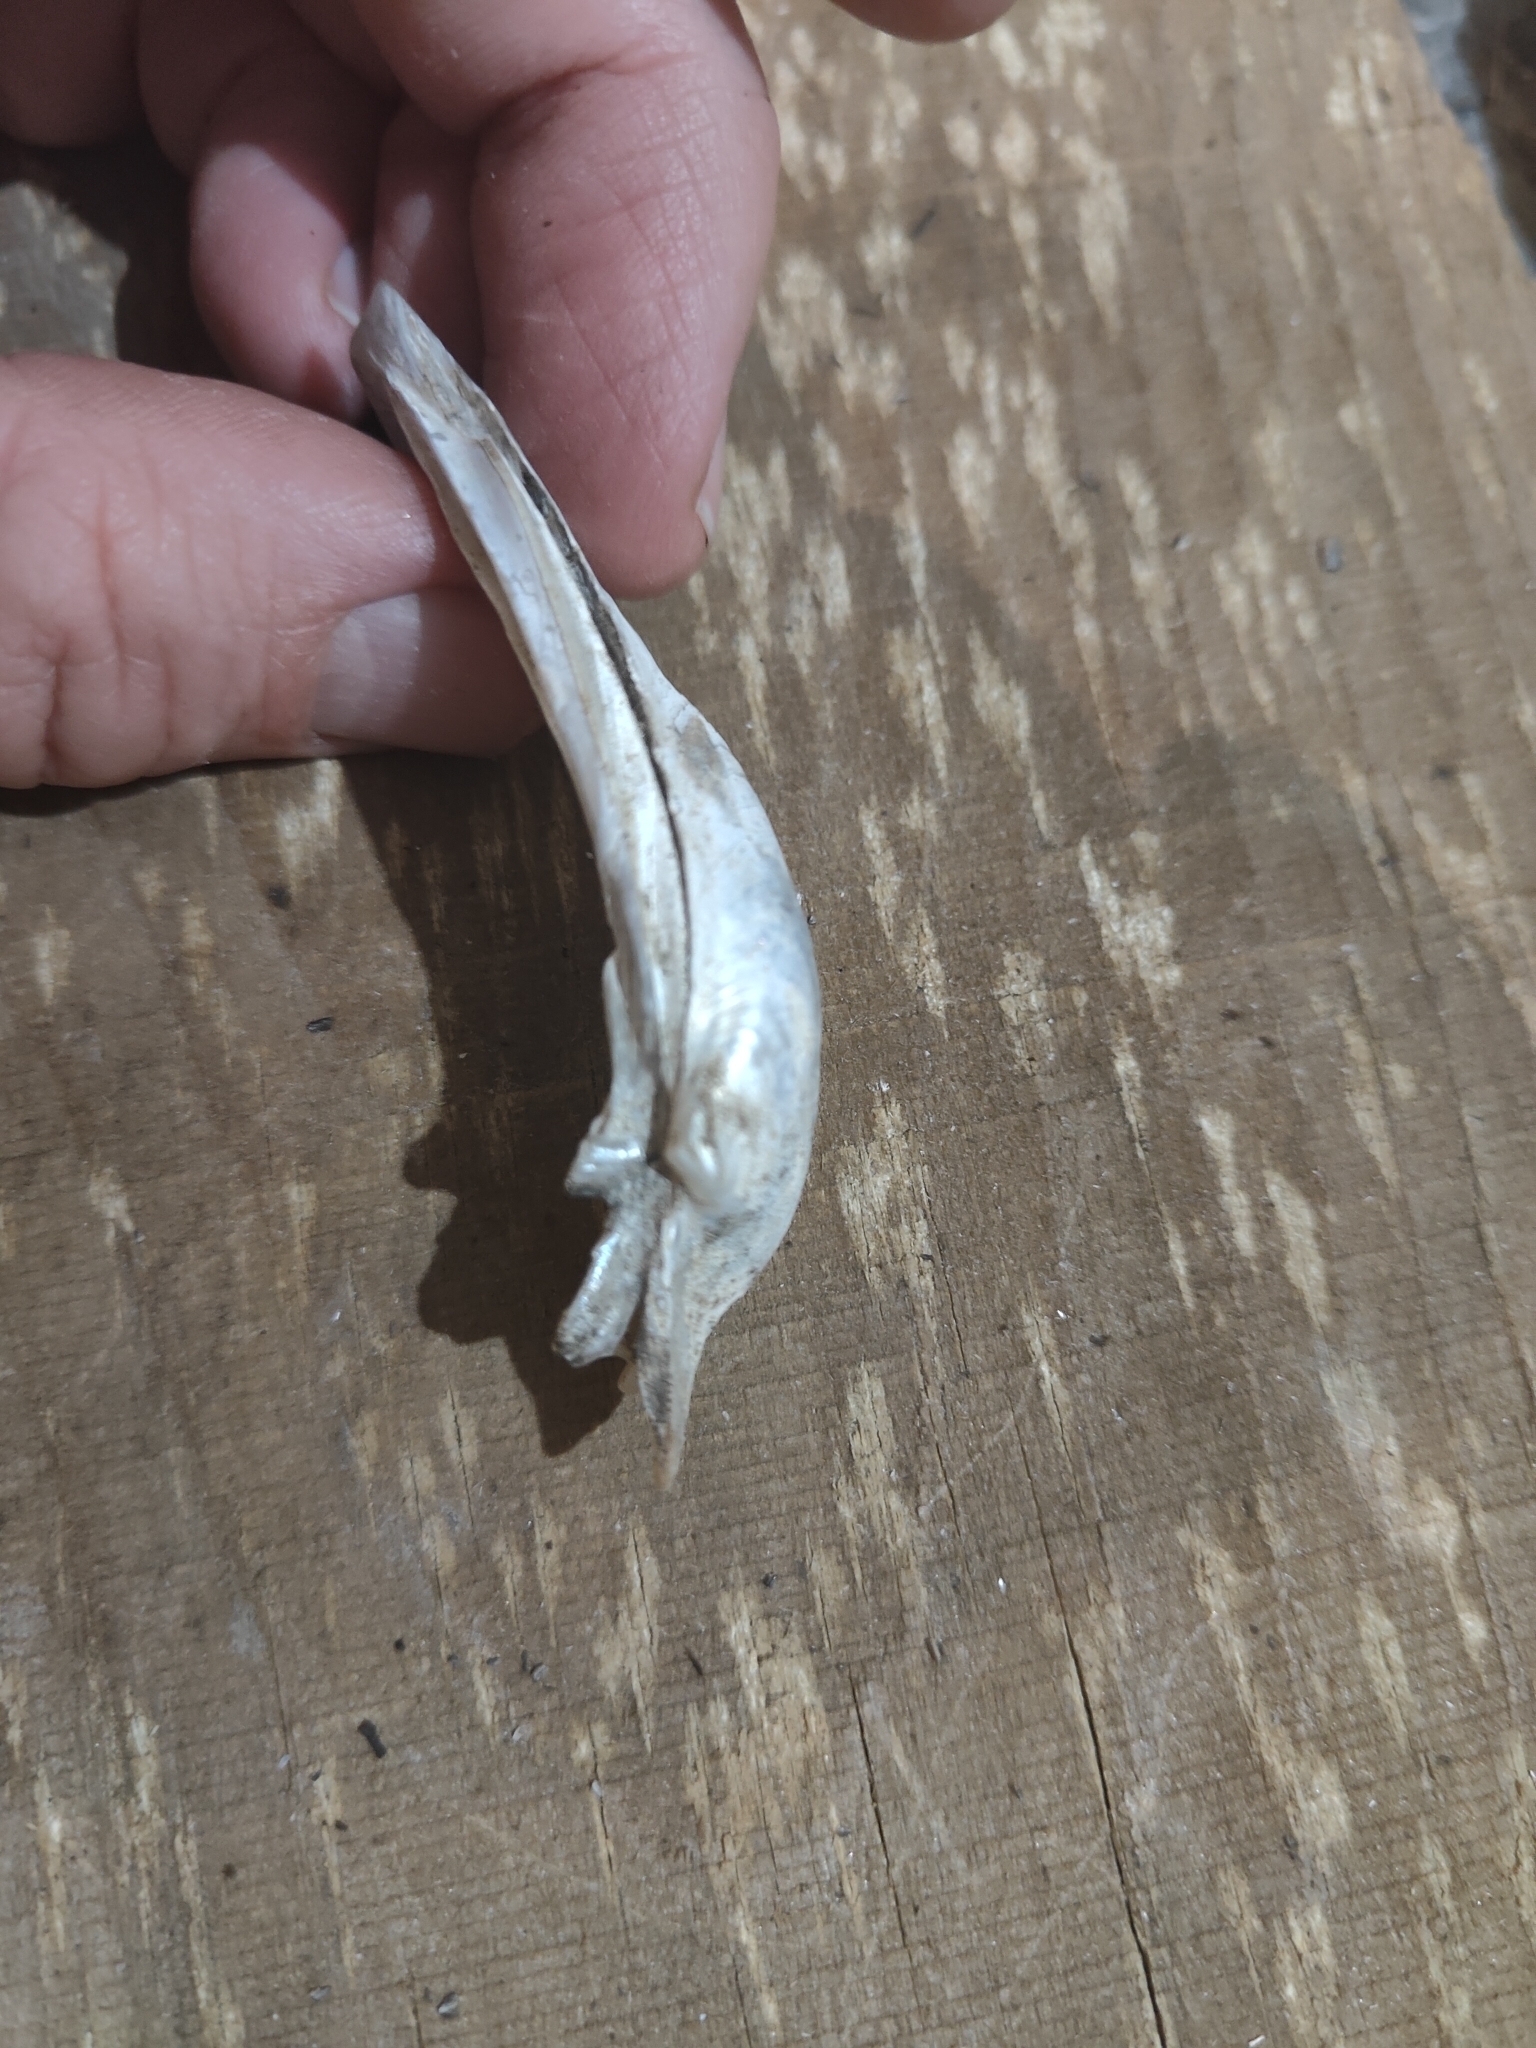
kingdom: Animalia
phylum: Mollusca
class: Bivalvia
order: Unionida
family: Unionidae
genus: Lampsilis
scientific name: Lampsilis cardium
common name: Plain pocketbook
